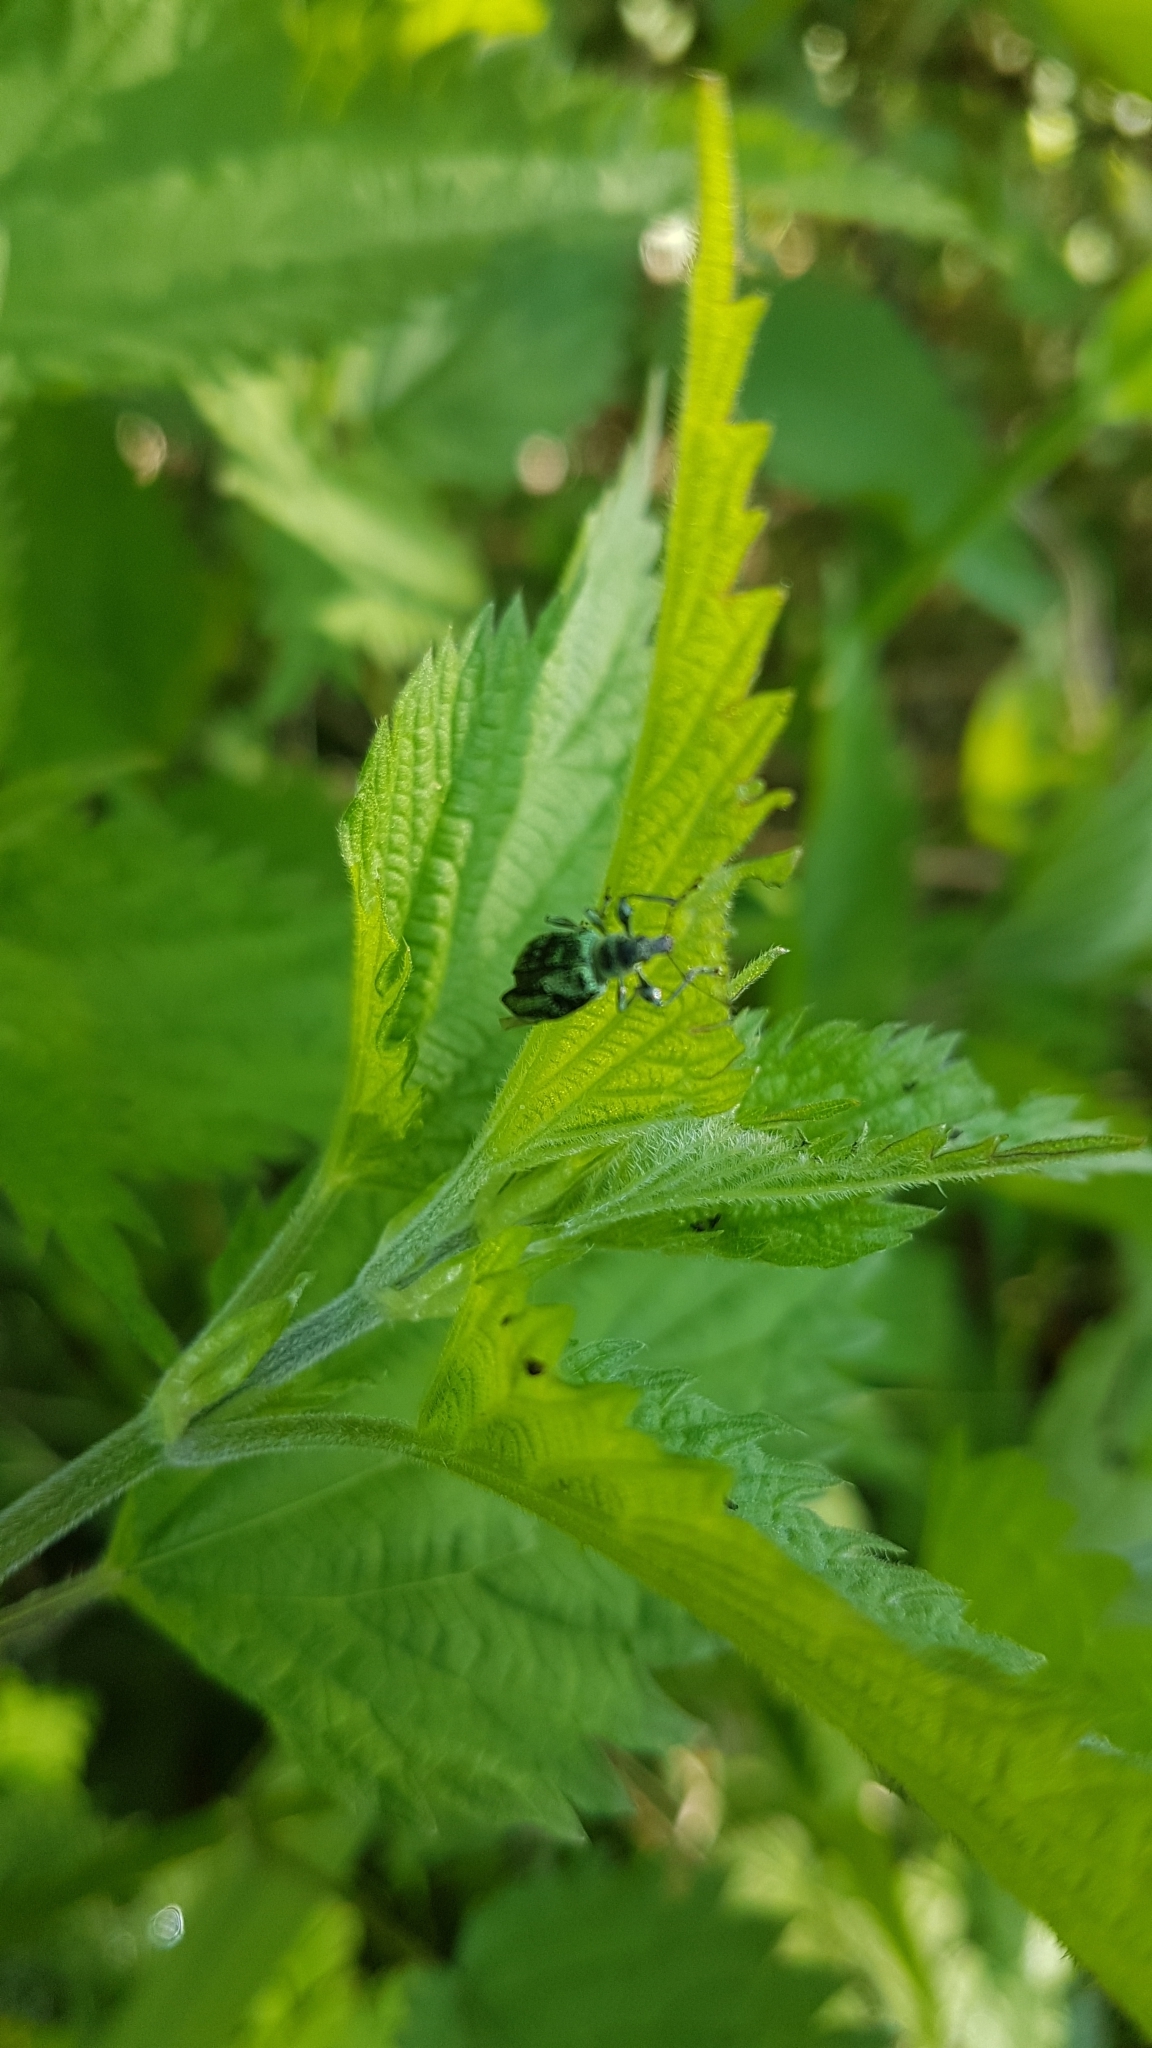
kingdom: Animalia
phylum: Arthropoda
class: Insecta
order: Coleoptera
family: Curculionidae
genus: Phyllobius
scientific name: Phyllobius pomaceus
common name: Green nettle weevil
